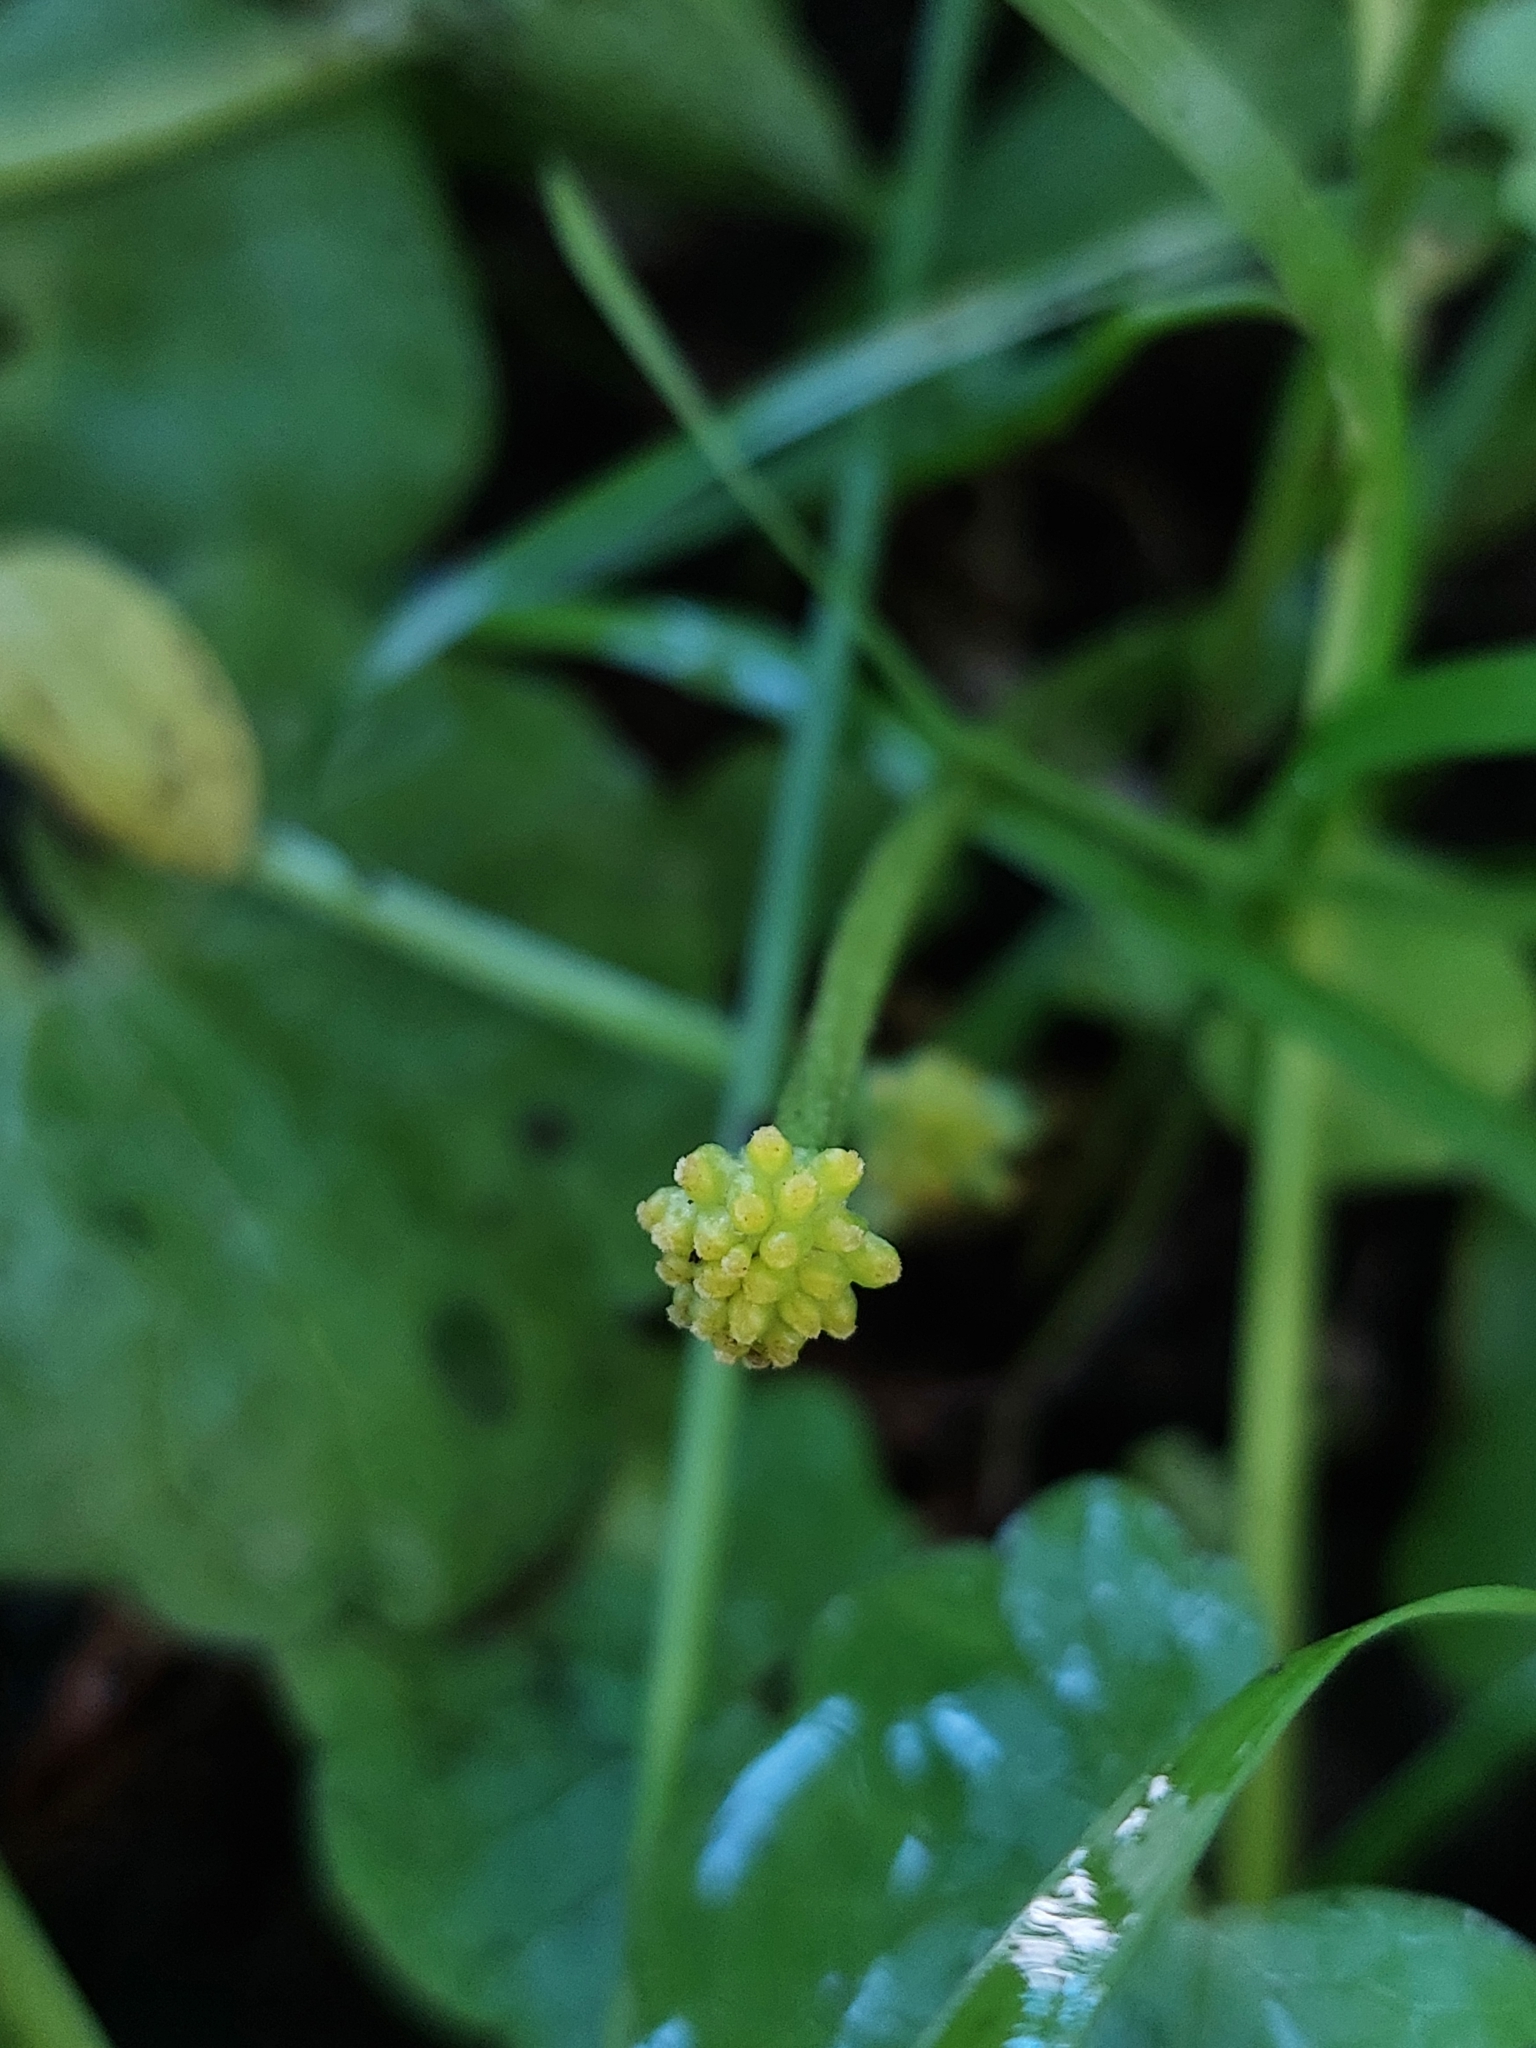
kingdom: Plantae
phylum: Tracheophyta
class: Magnoliopsida
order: Ranunculales
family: Ranunculaceae
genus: Ficaria
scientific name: Ficaria verna
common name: Lesser celandine
